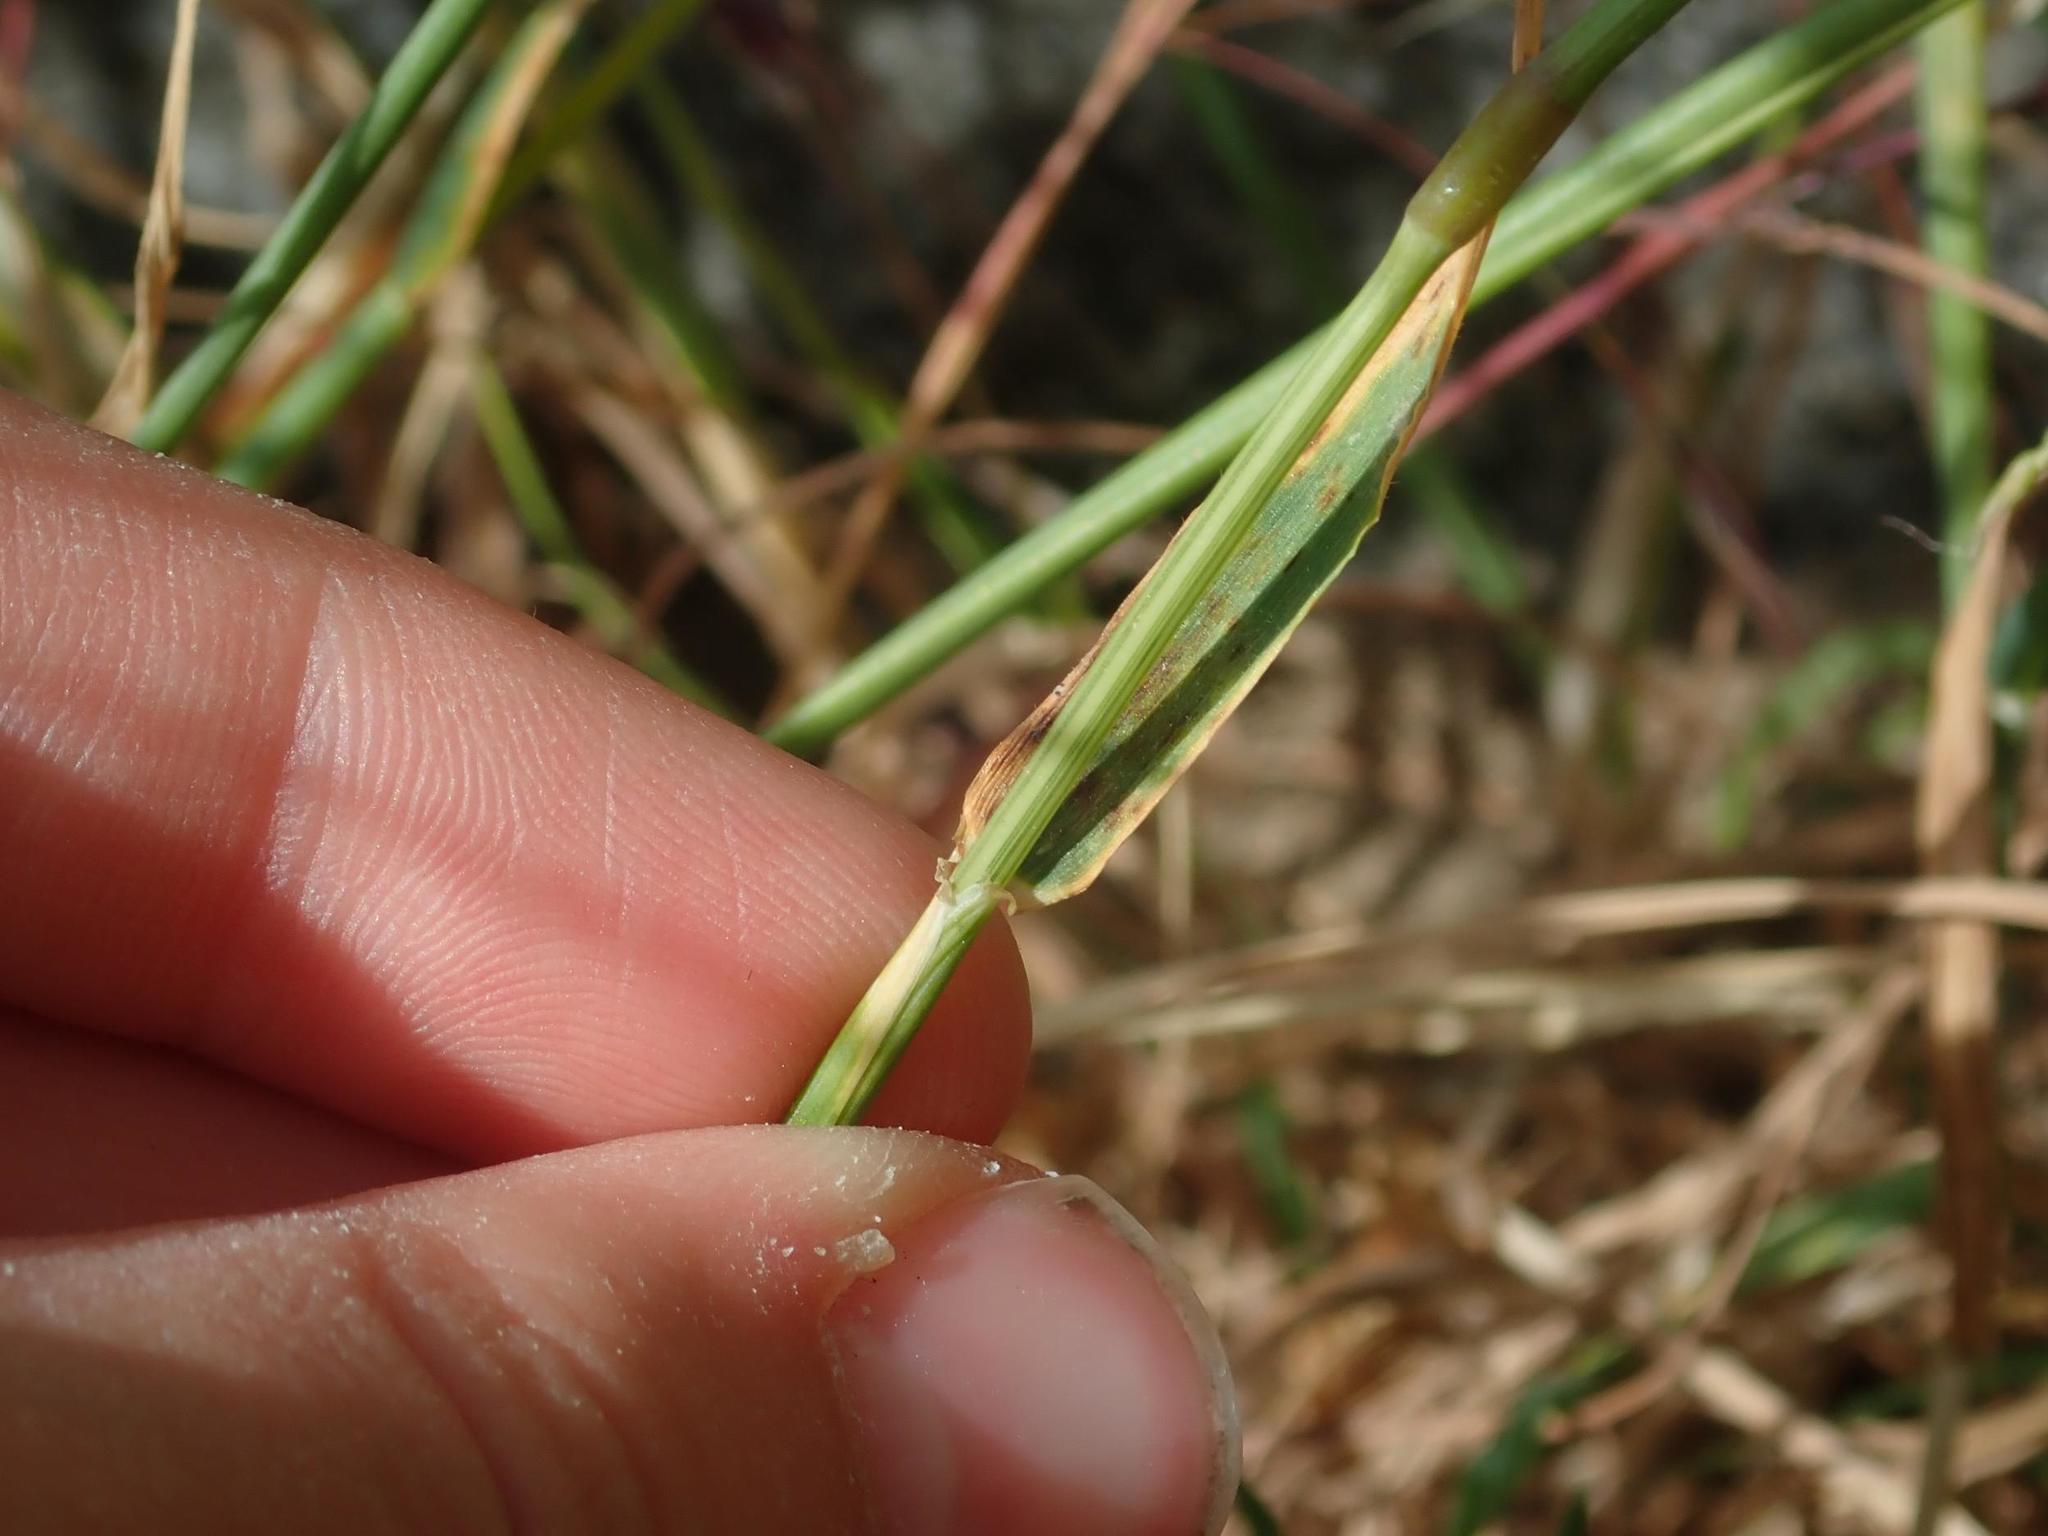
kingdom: Plantae
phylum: Tracheophyta
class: Liliopsida
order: Poales
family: Poaceae
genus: Hordeum
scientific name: Hordeum murinum
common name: Wall barley
